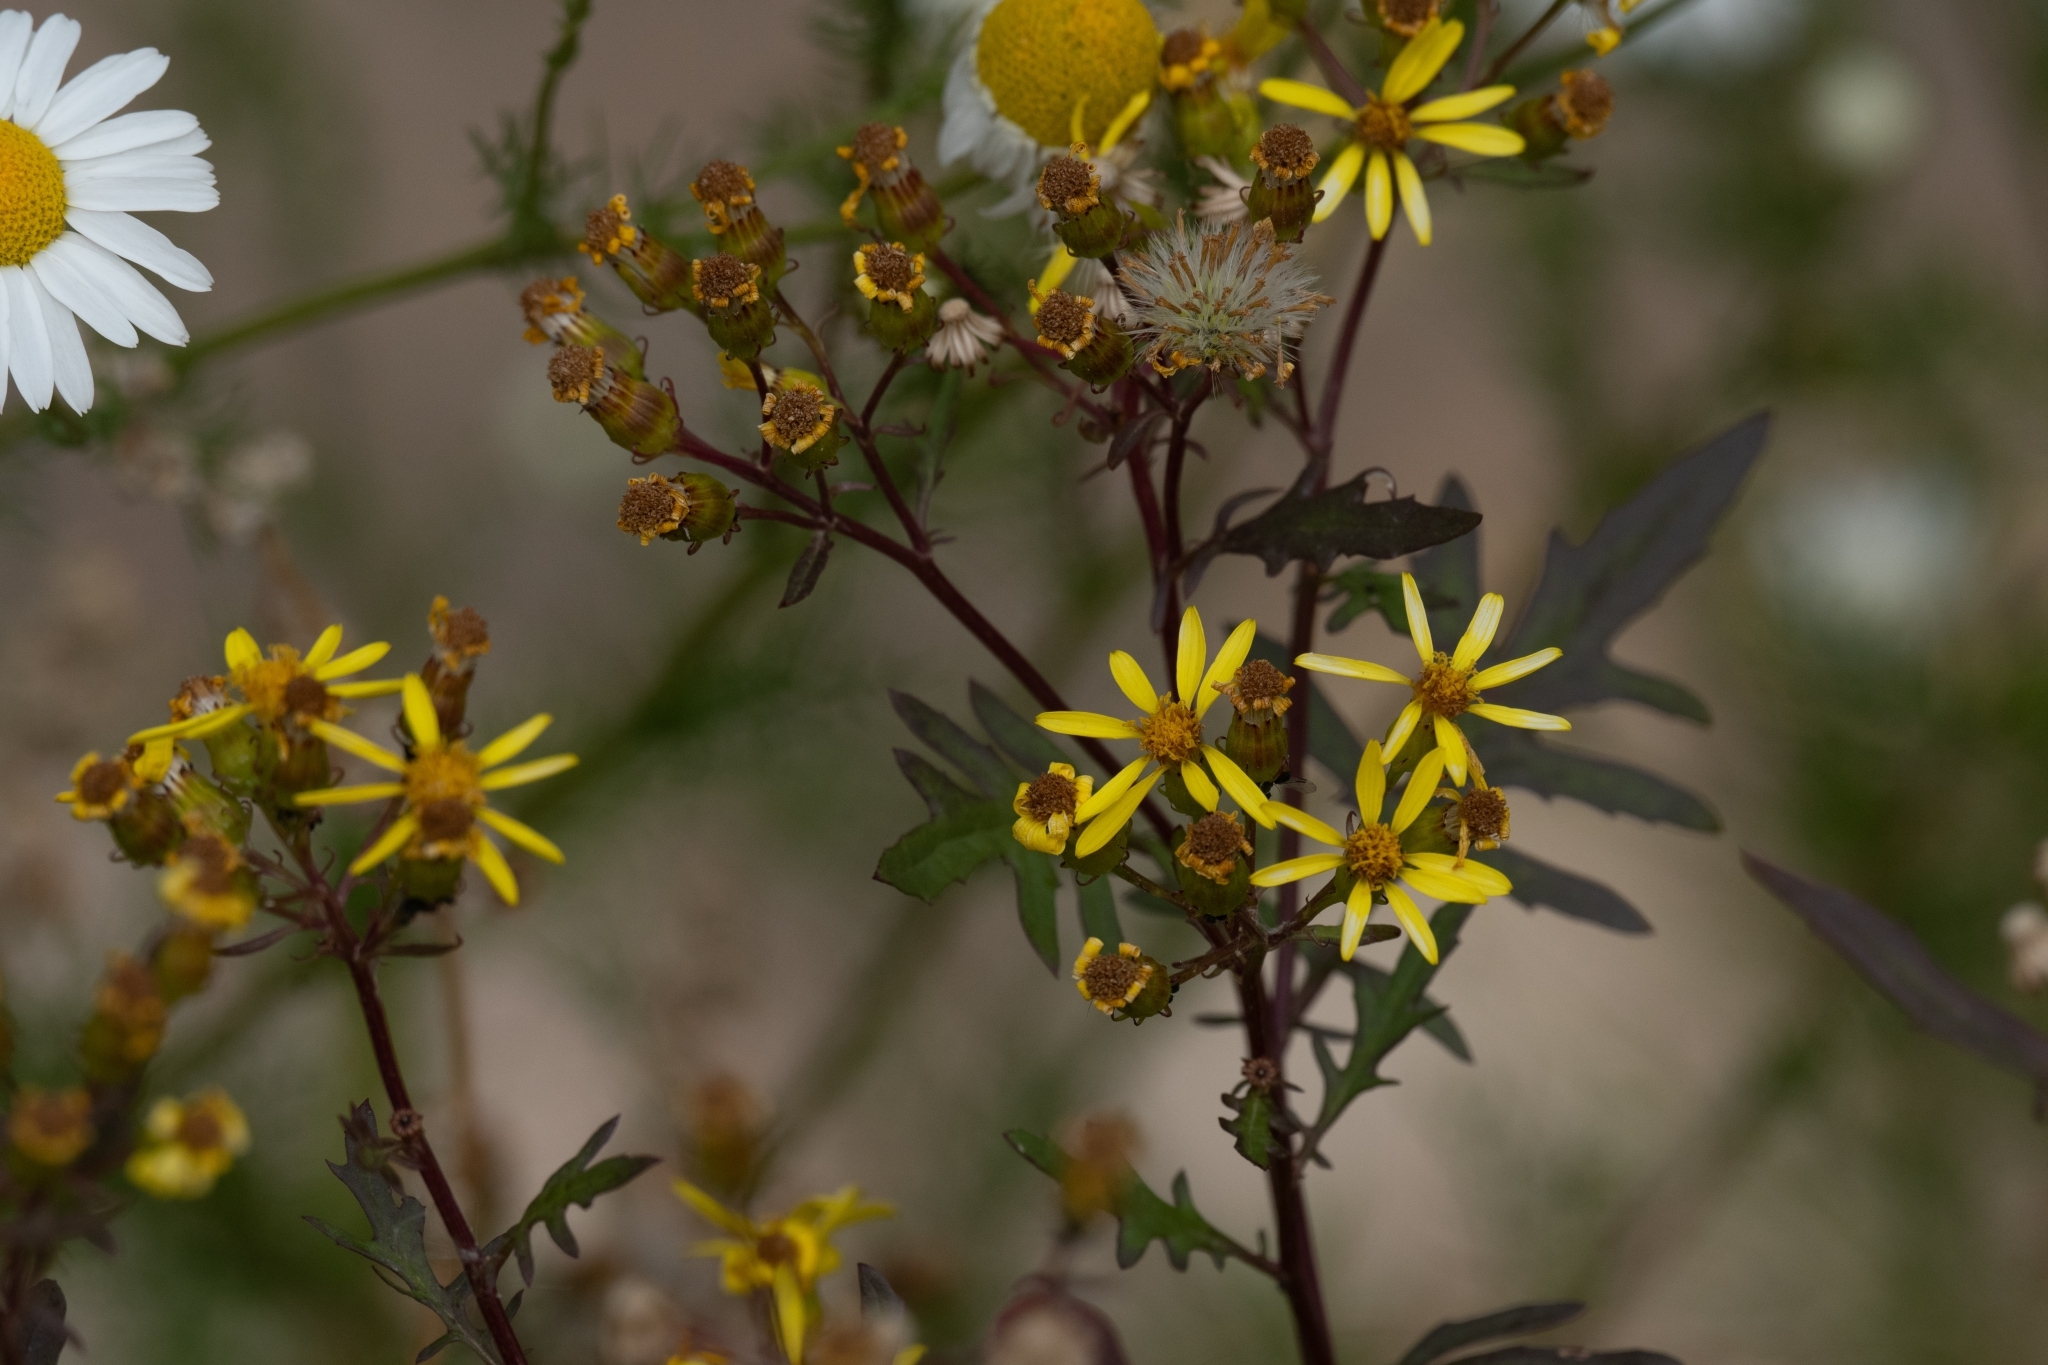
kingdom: Plantae
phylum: Tracheophyta
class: Magnoliopsida
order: Asterales
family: Asteraceae
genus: Senecio
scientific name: Senecio eremophilus
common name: Desert ragwort
